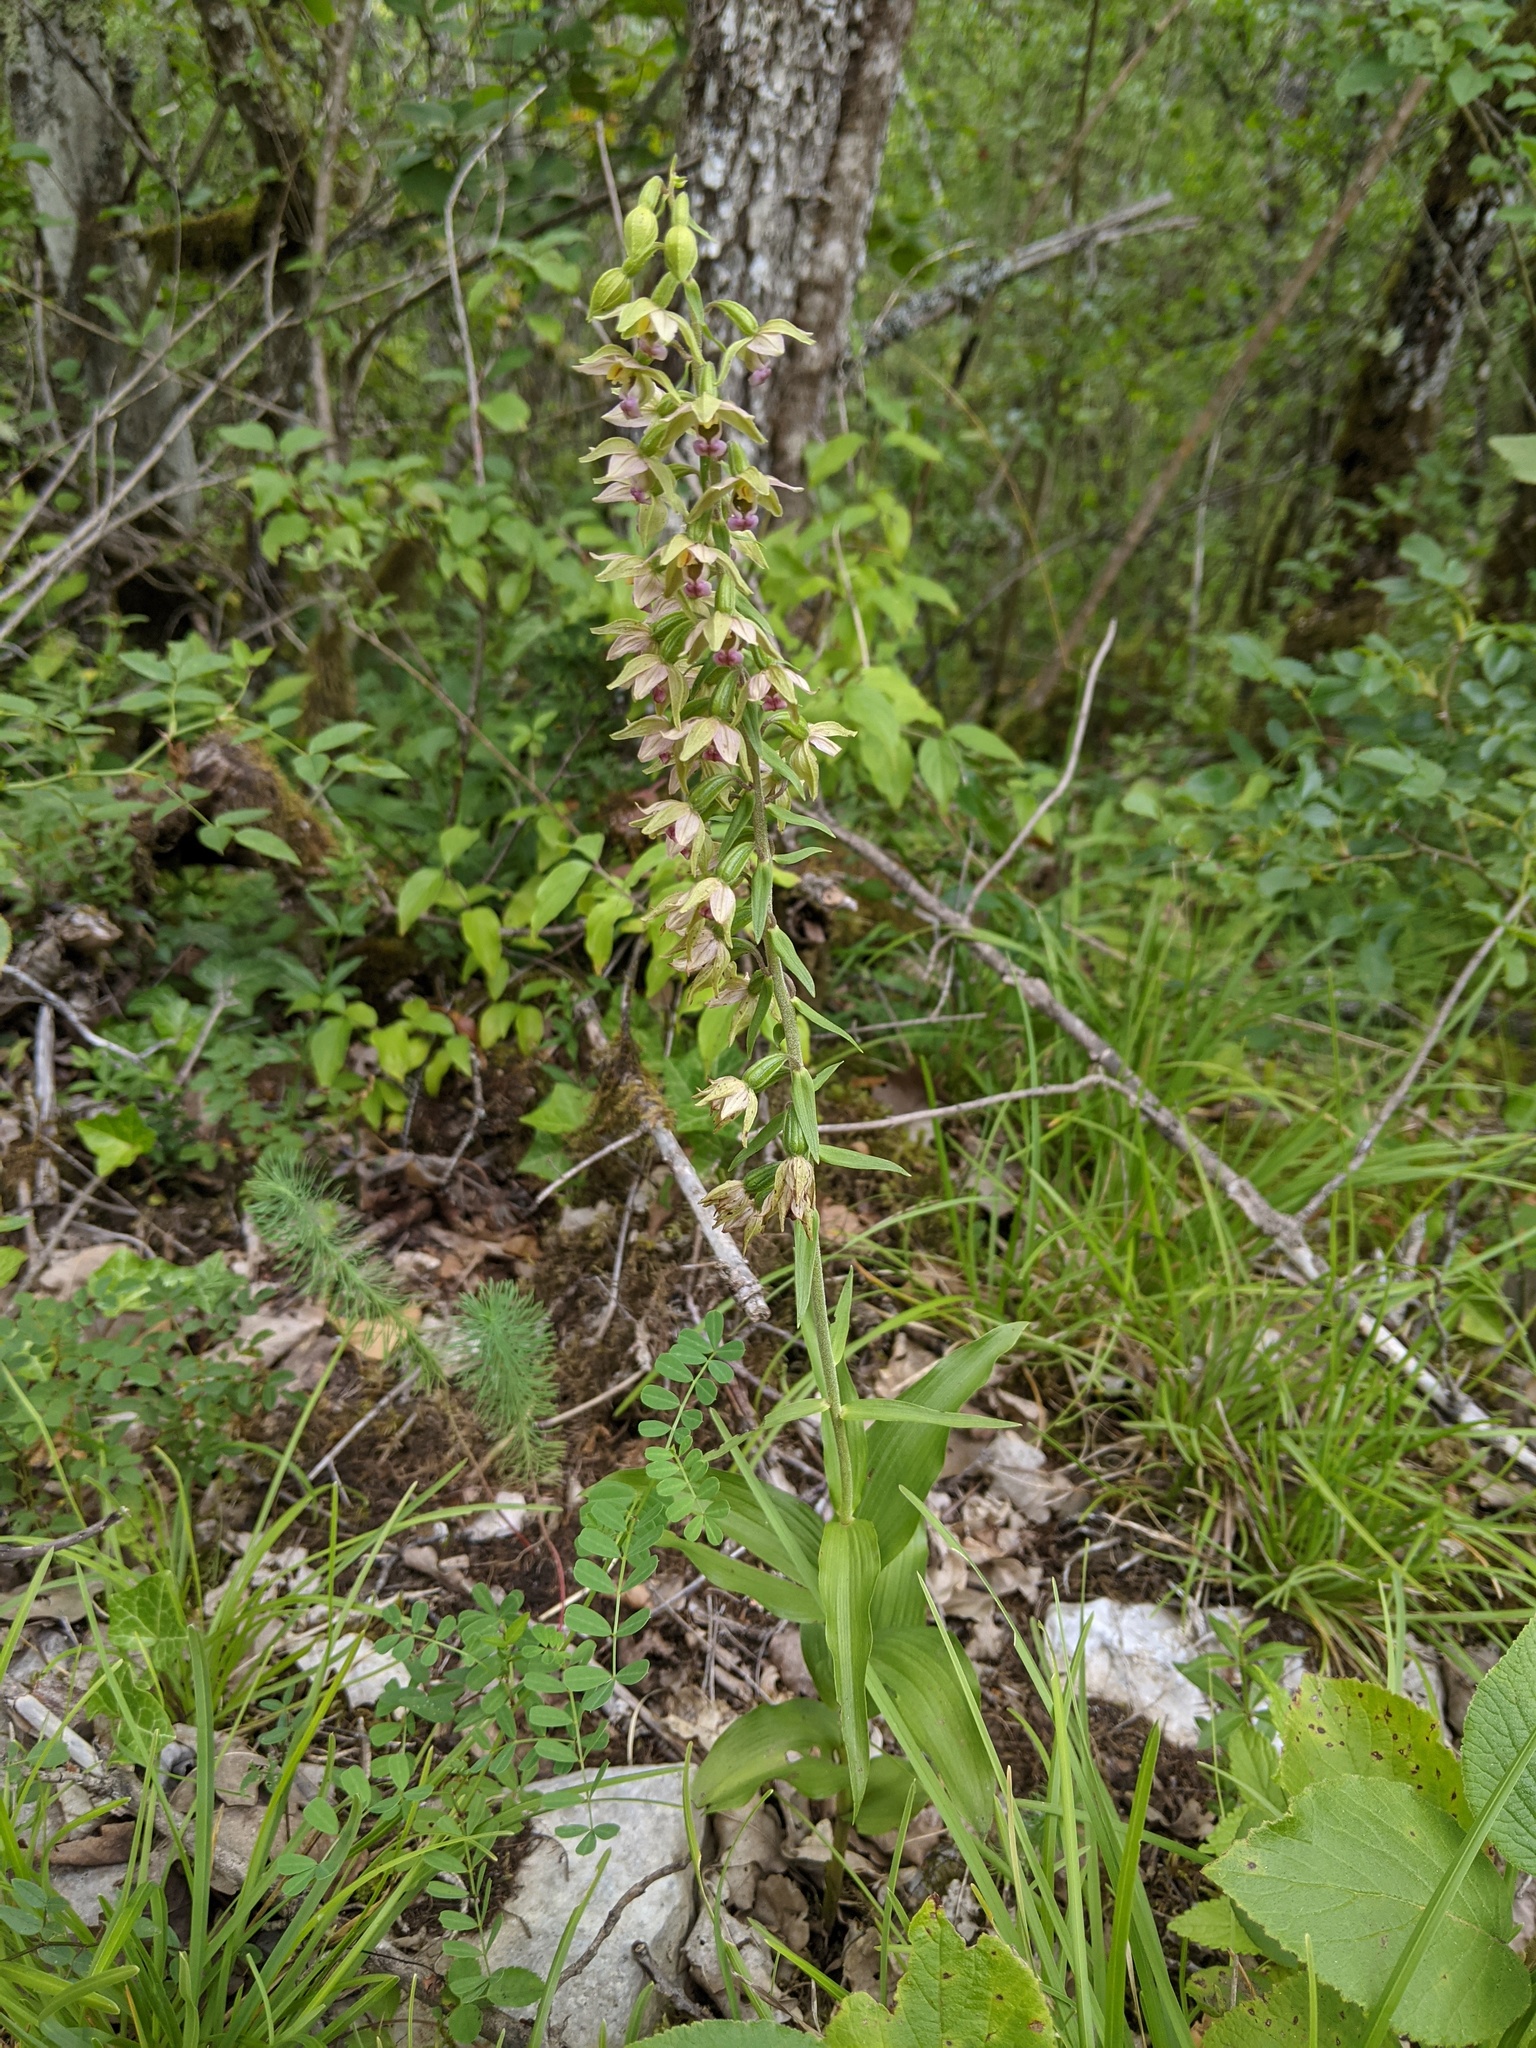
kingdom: Plantae
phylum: Tracheophyta
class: Liliopsida
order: Asparagales
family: Orchidaceae
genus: Epipactis
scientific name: Epipactis helleborine
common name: Broad-leaved helleborine
